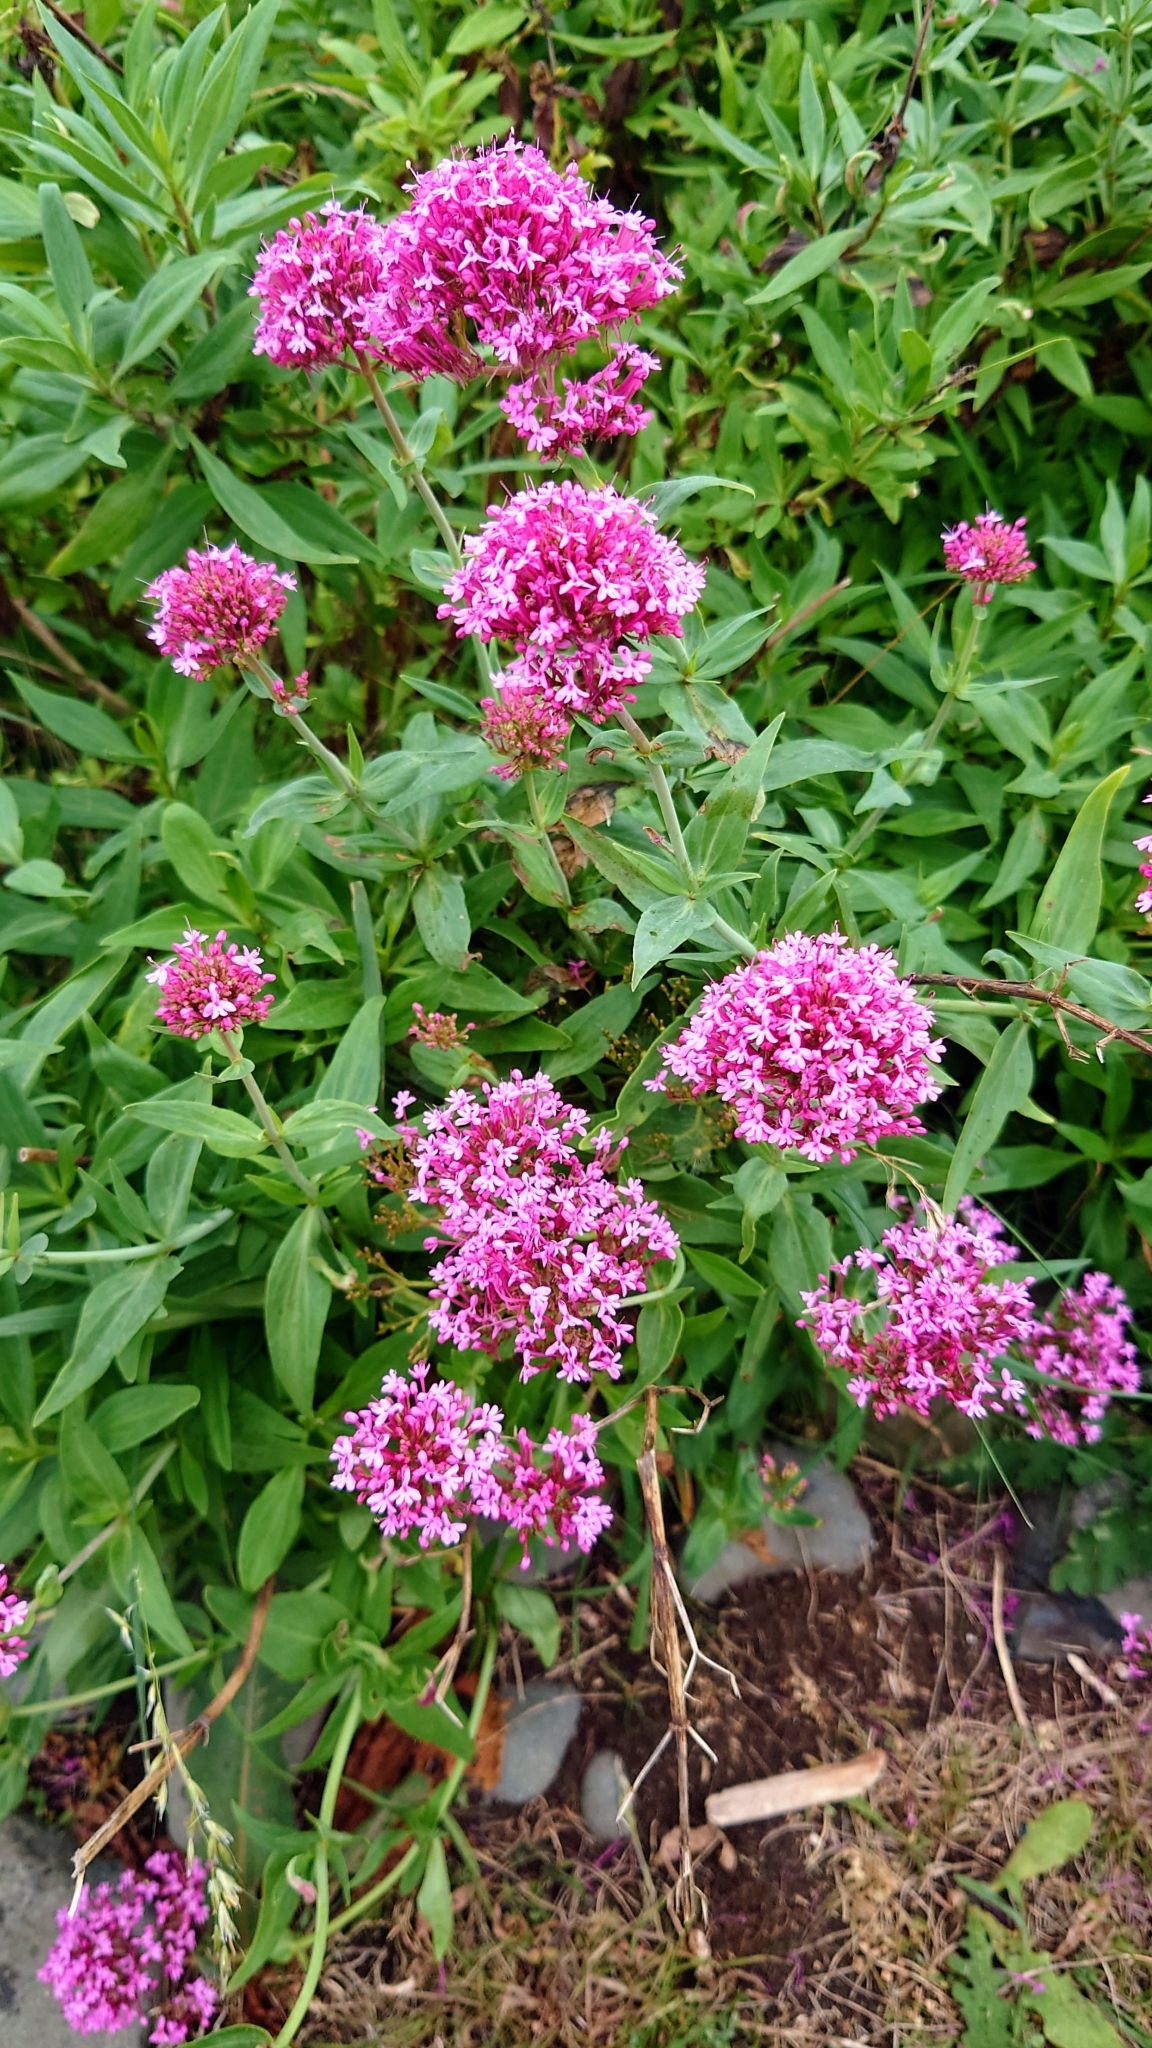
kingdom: Plantae
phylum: Tracheophyta
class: Magnoliopsida
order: Dipsacales
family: Caprifoliaceae
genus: Centranthus
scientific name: Centranthus ruber
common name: Red valerian
